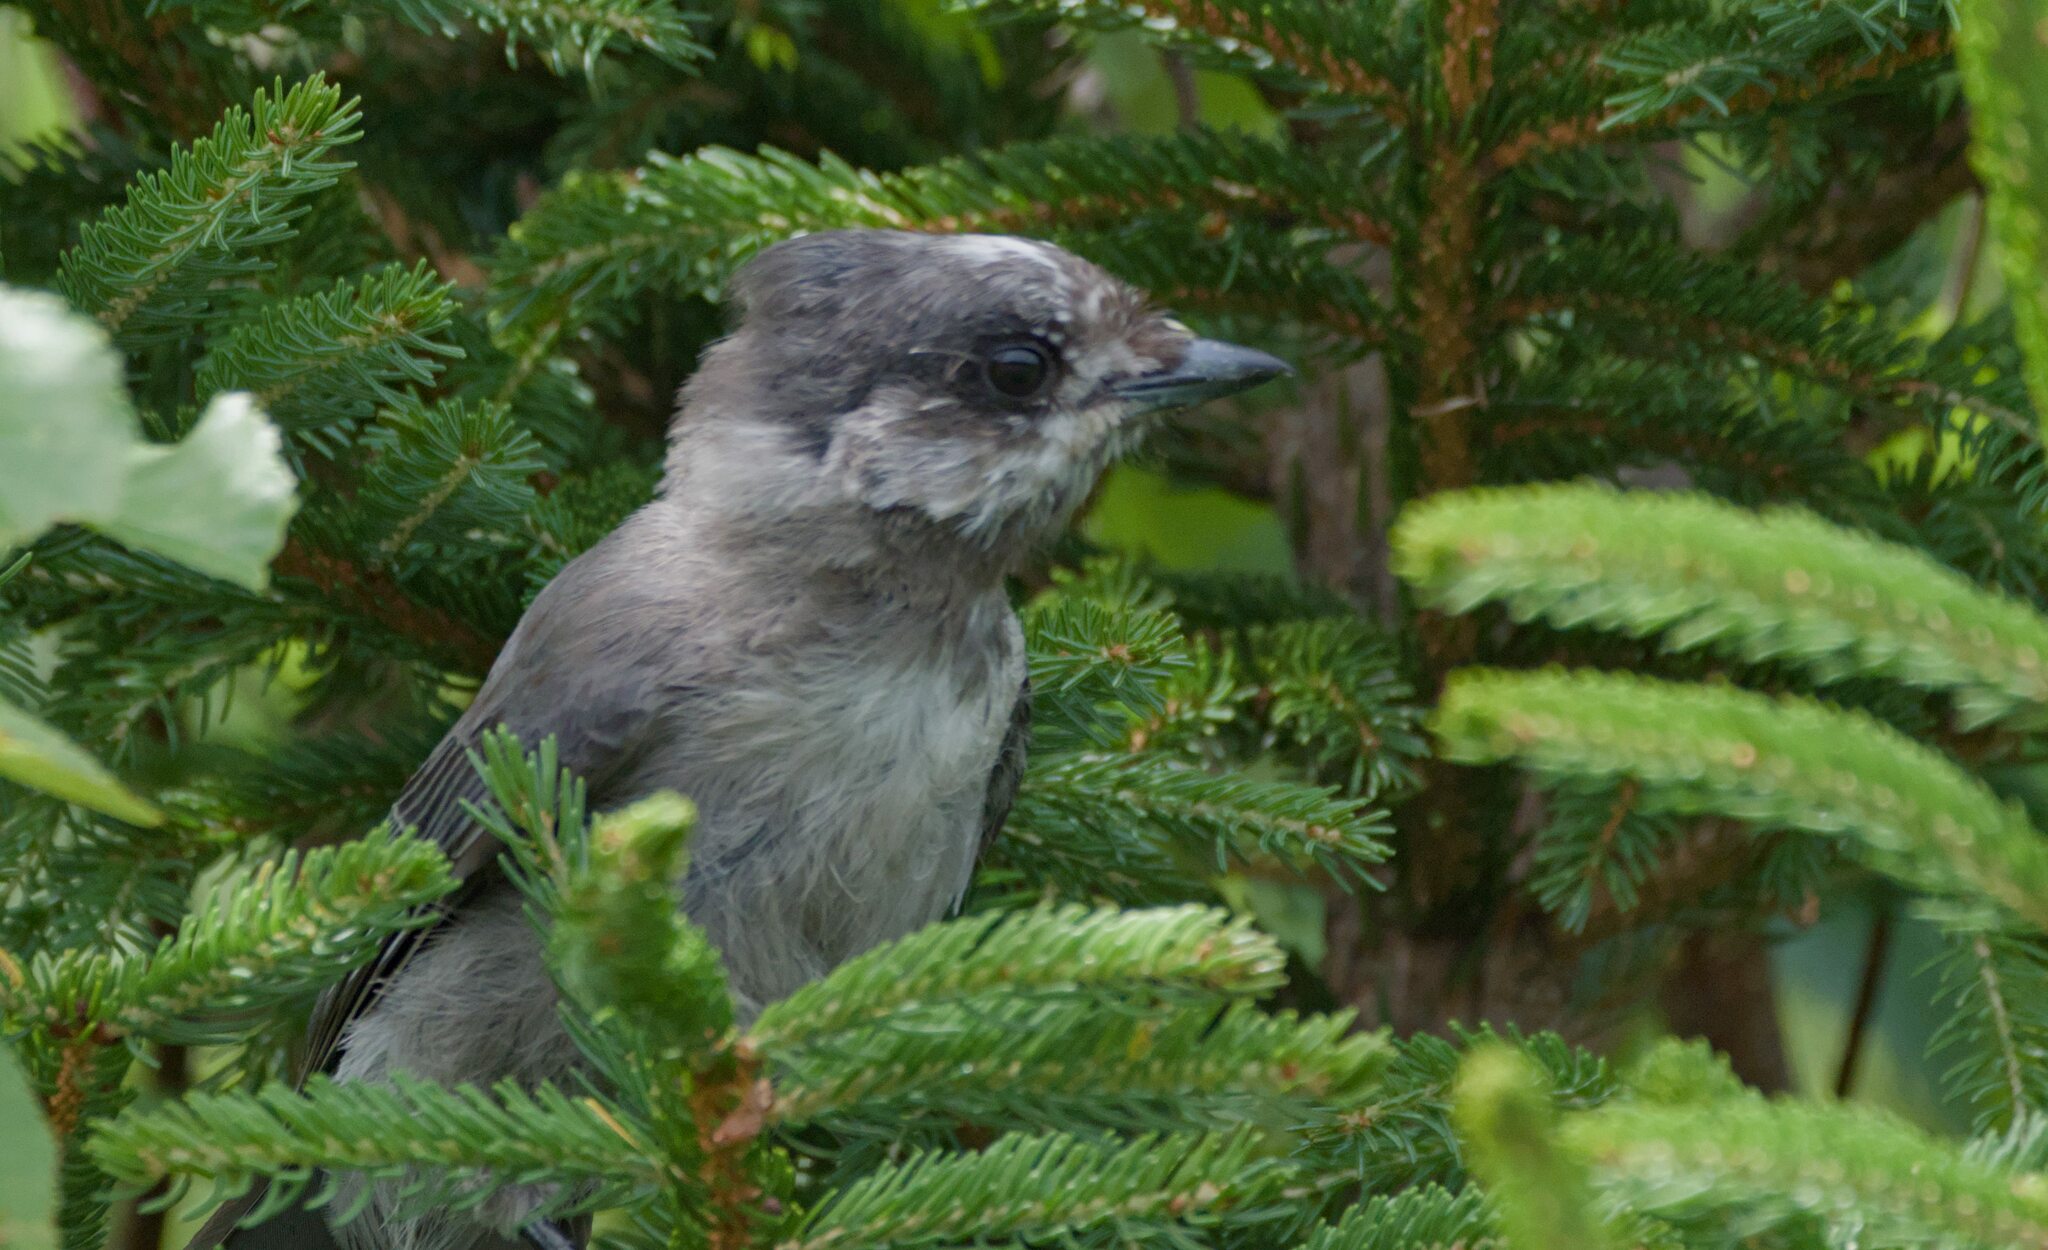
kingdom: Animalia
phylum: Chordata
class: Aves
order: Passeriformes
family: Corvidae
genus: Perisoreus
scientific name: Perisoreus canadensis
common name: Gray jay
